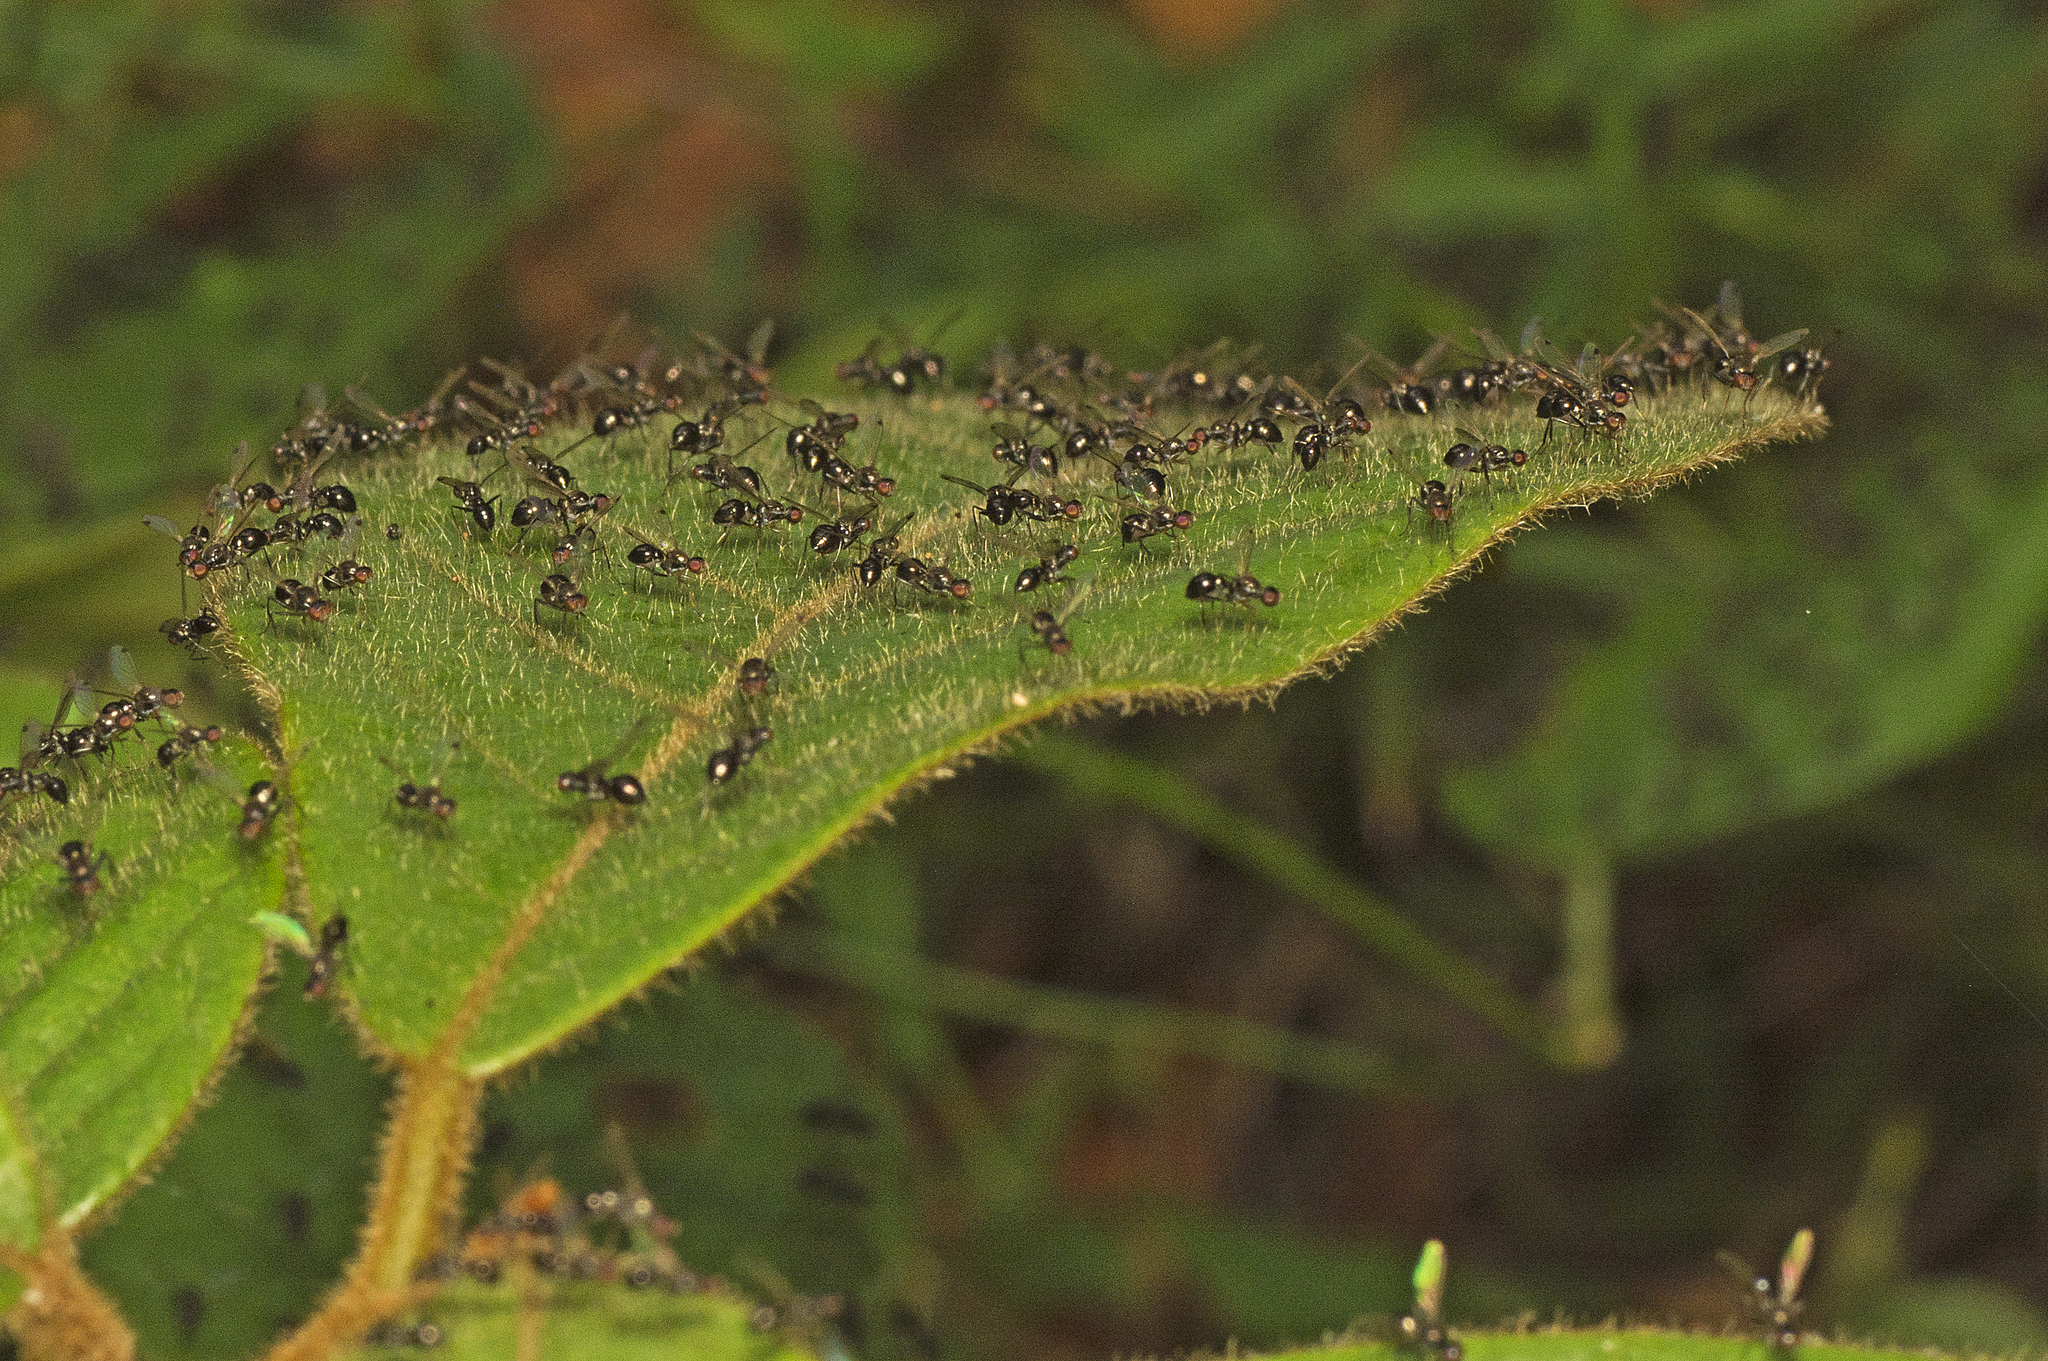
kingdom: Animalia
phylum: Arthropoda
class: Insecta
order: Diptera
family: Sepsidae
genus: Parapalaeosepsis
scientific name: Parapalaeosepsis plebeia
